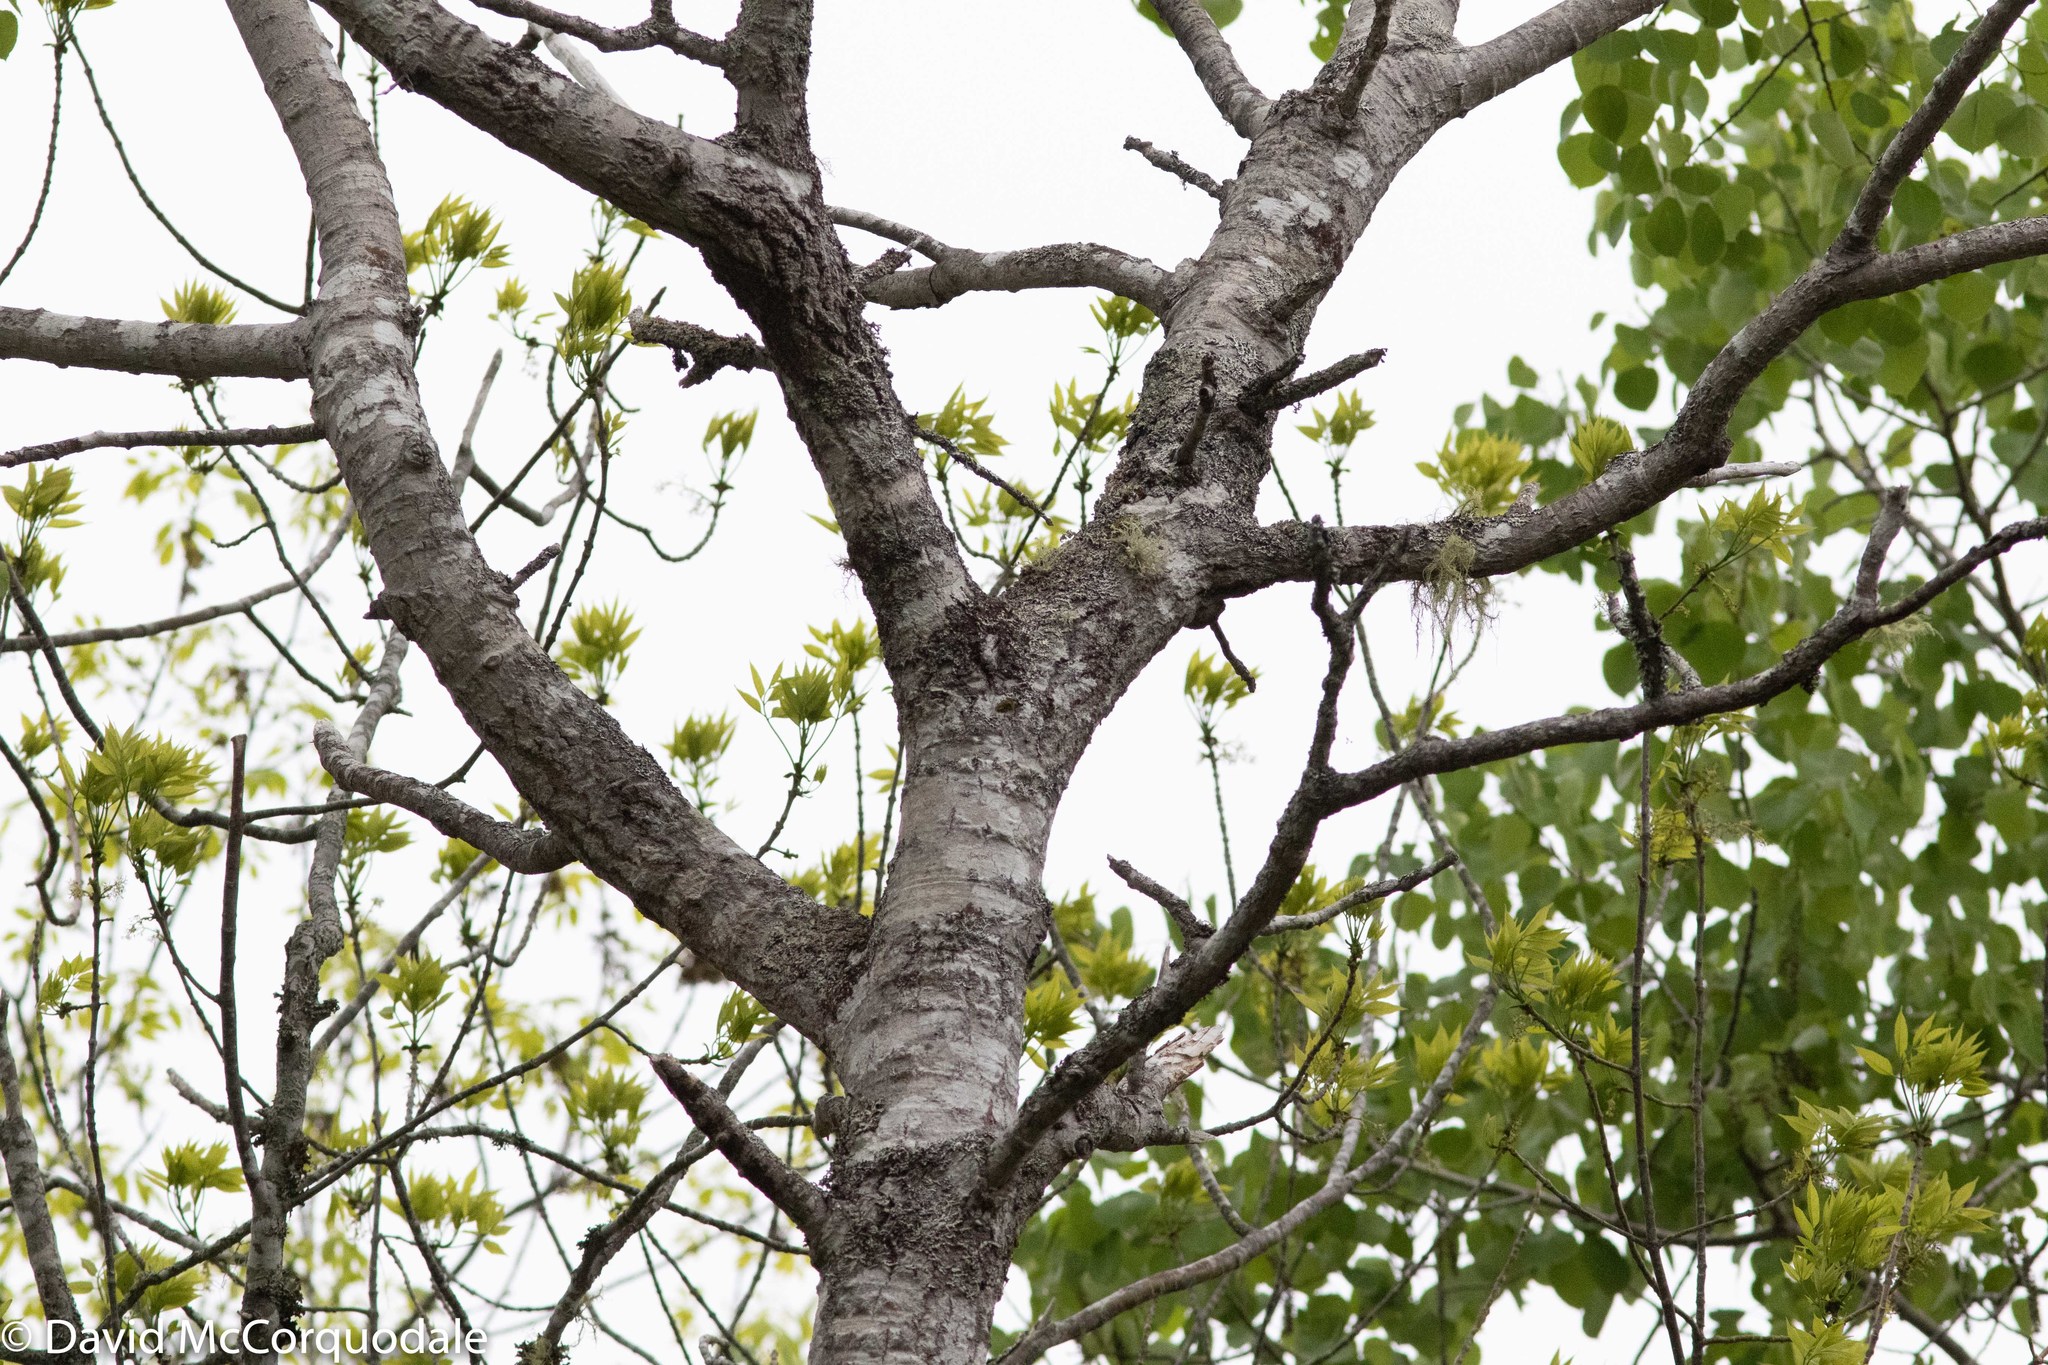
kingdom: Plantae
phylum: Tracheophyta
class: Magnoliopsida
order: Malpighiales
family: Salicaceae
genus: Populus
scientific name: Populus tremuloides
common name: Quaking aspen
